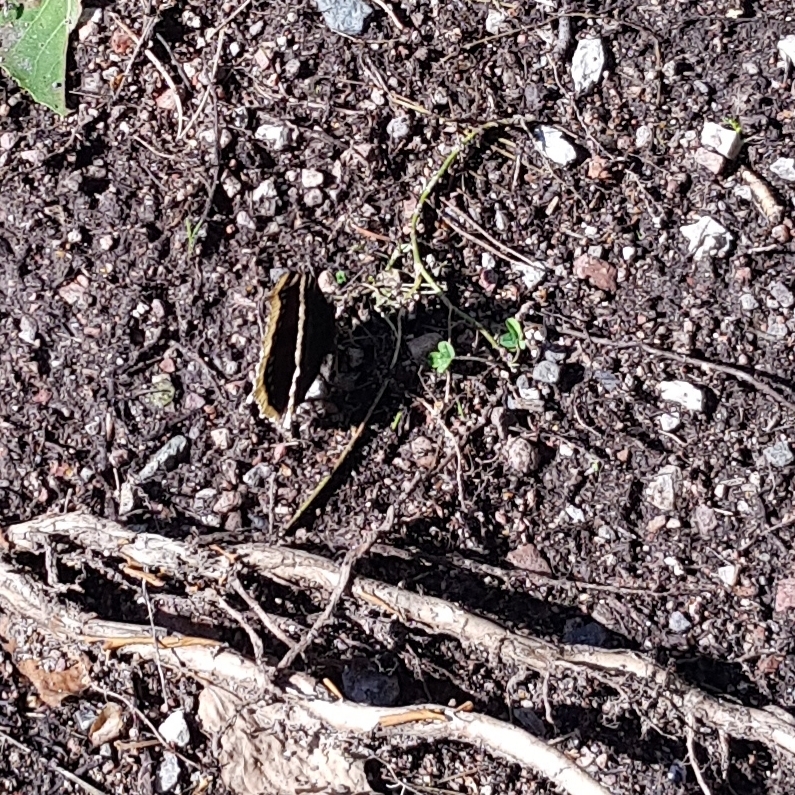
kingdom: Animalia
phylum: Arthropoda
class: Insecta
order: Lepidoptera
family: Nymphalidae
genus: Nymphalis
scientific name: Nymphalis antiopa
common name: Camberwell beauty
